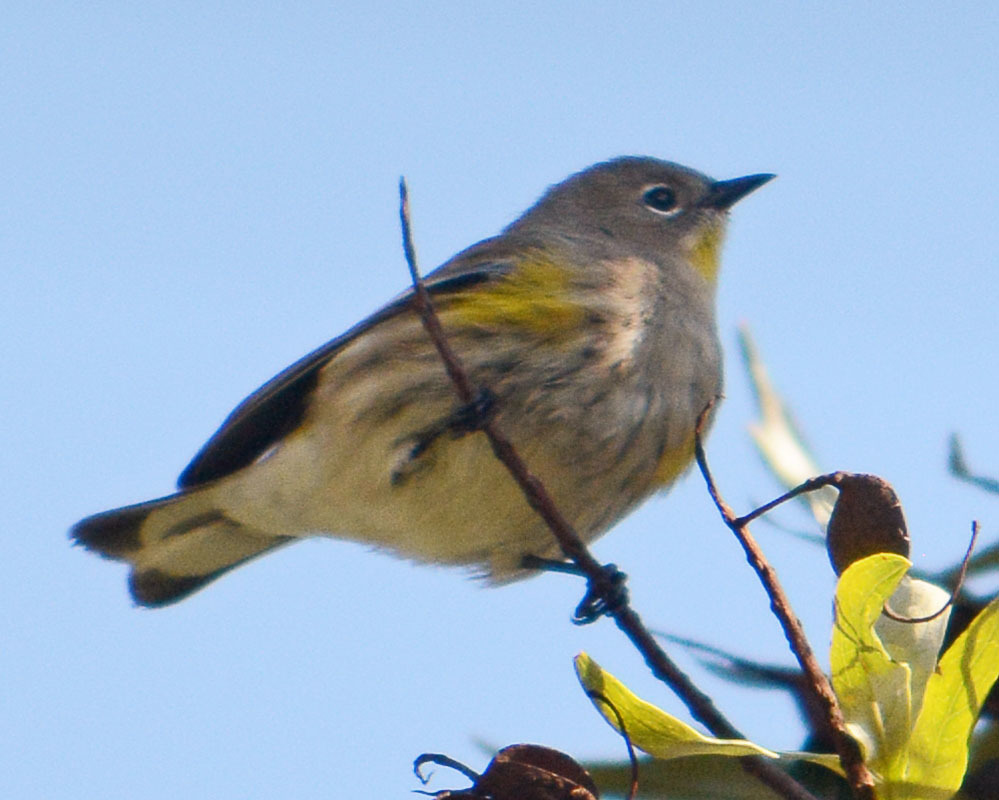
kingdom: Animalia
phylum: Chordata
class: Aves
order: Passeriformes
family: Parulidae
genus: Setophaga
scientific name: Setophaga auduboni
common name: Audubon's warbler
